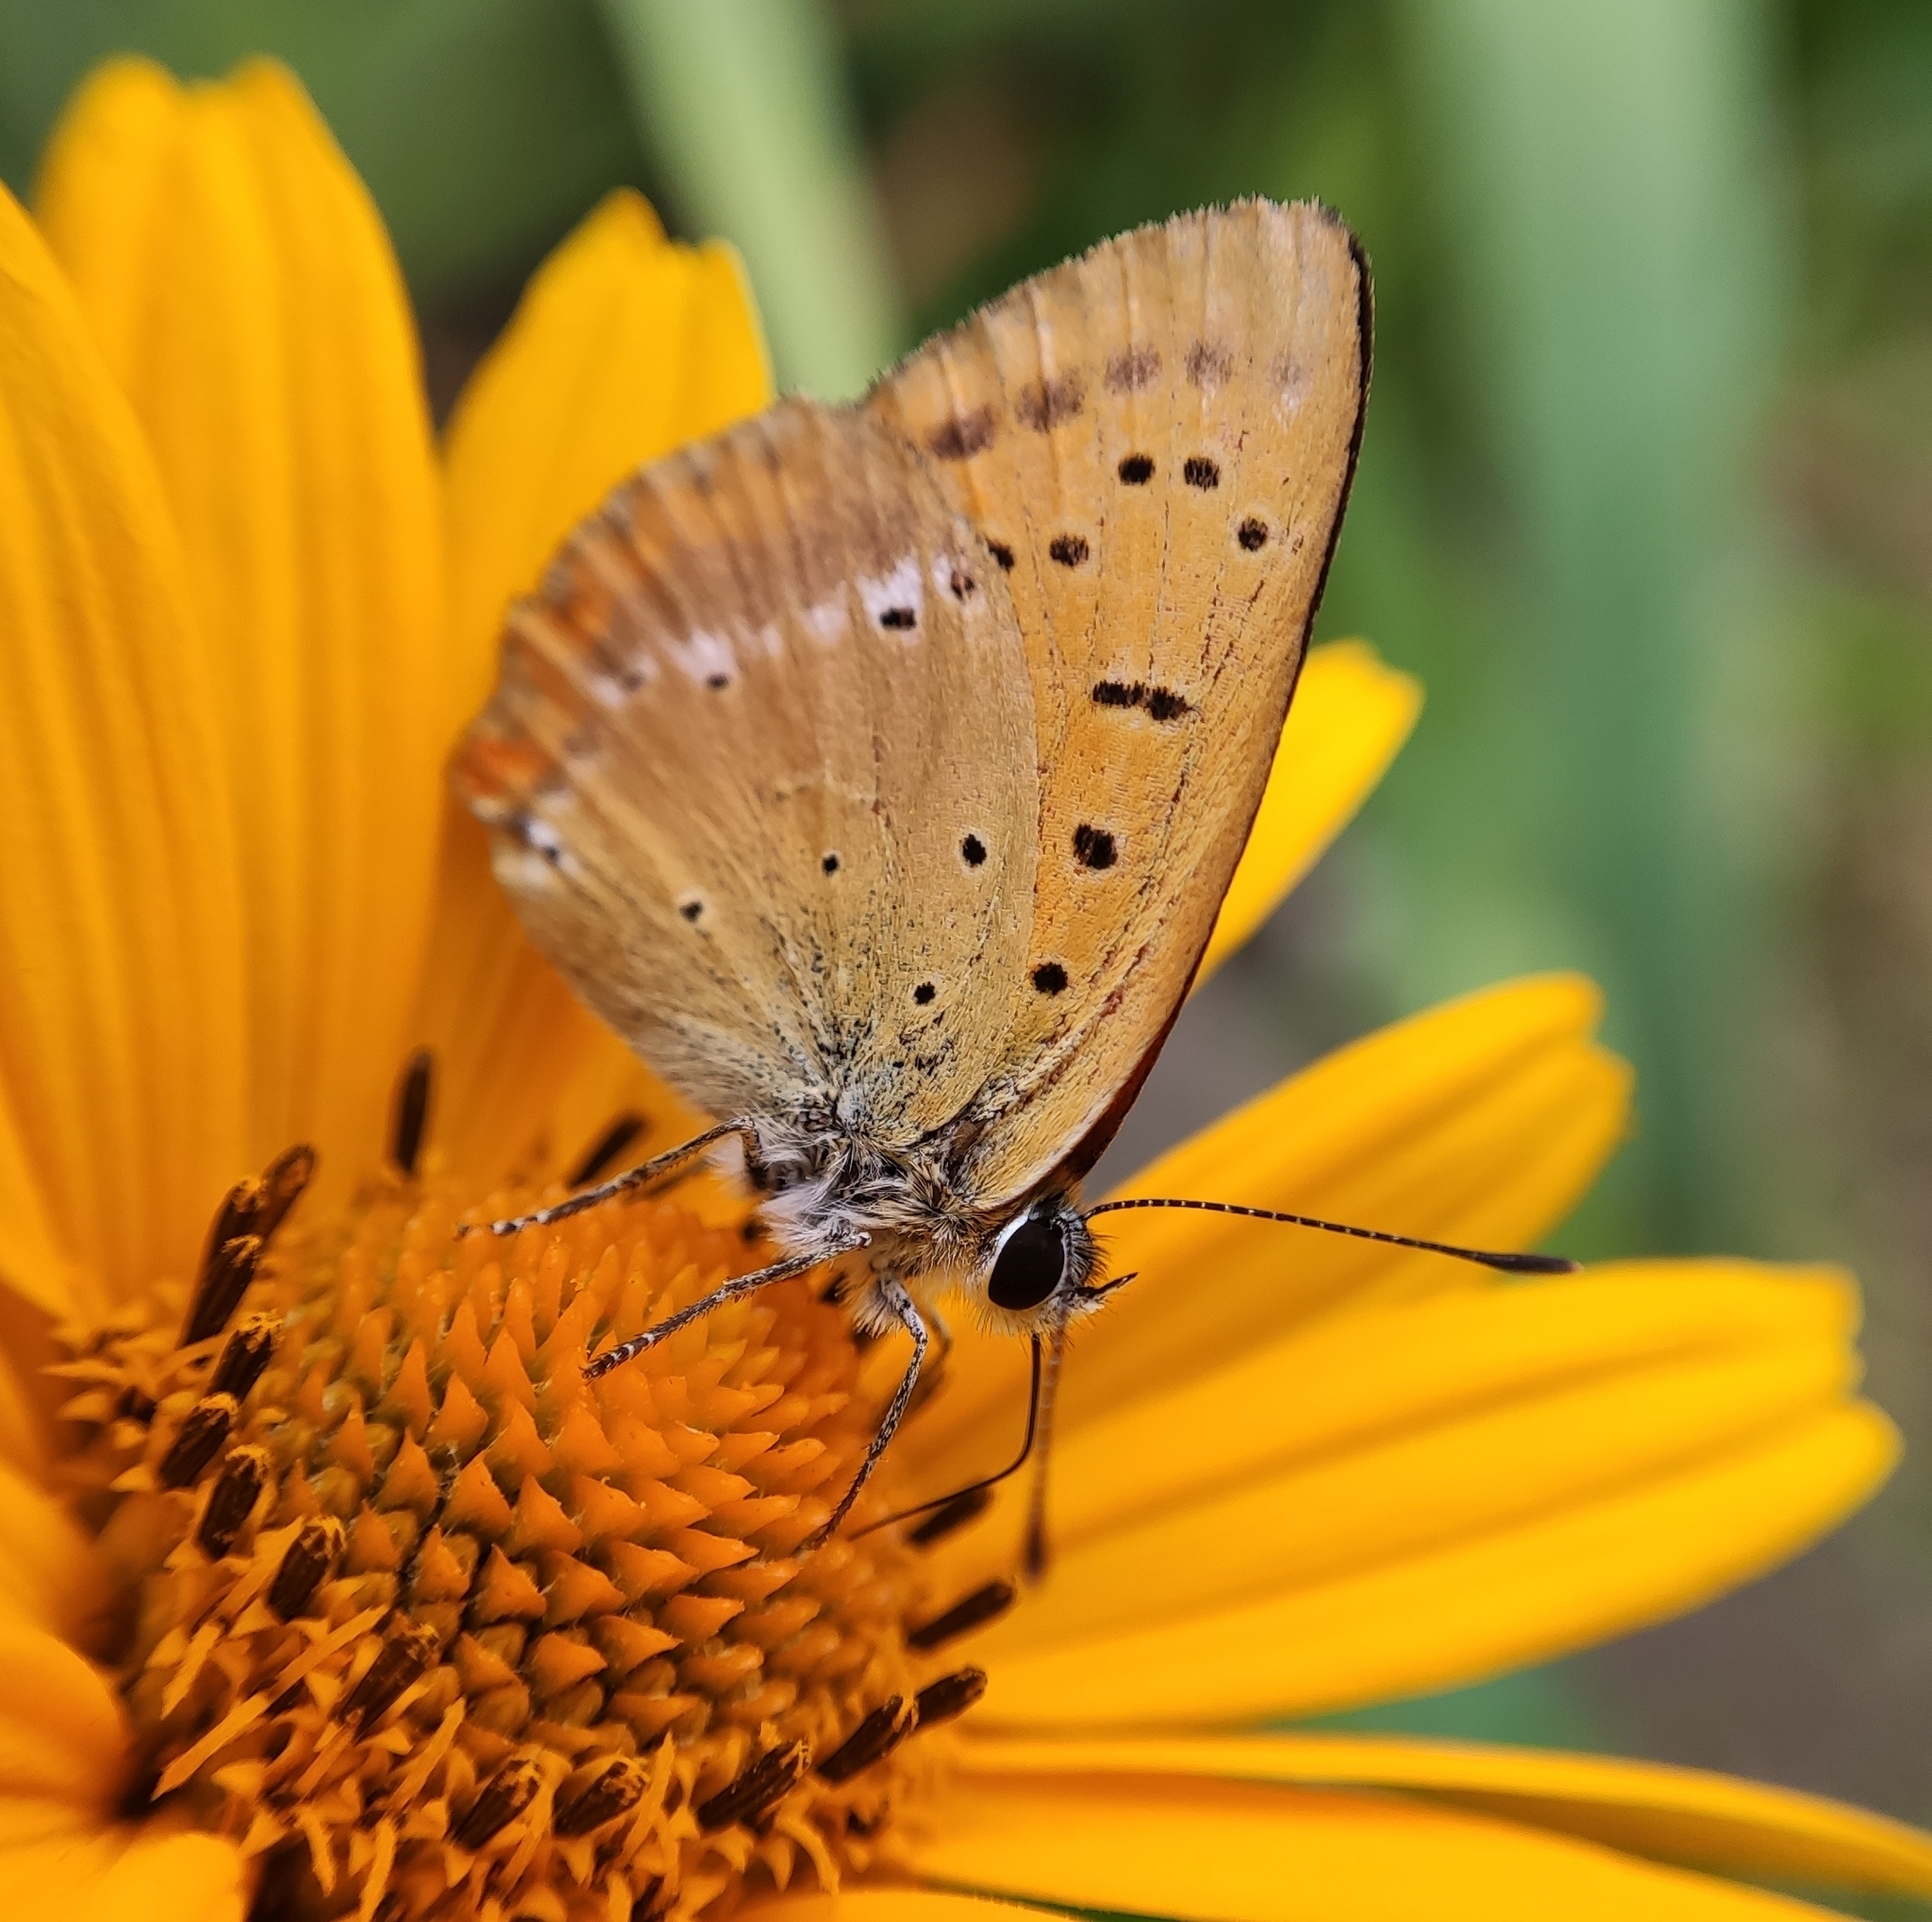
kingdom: Animalia
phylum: Arthropoda
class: Insecta
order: Lepidoptera
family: Lycaenidae
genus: Lycaena
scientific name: Lycaena virgaureae
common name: Scarce copper
